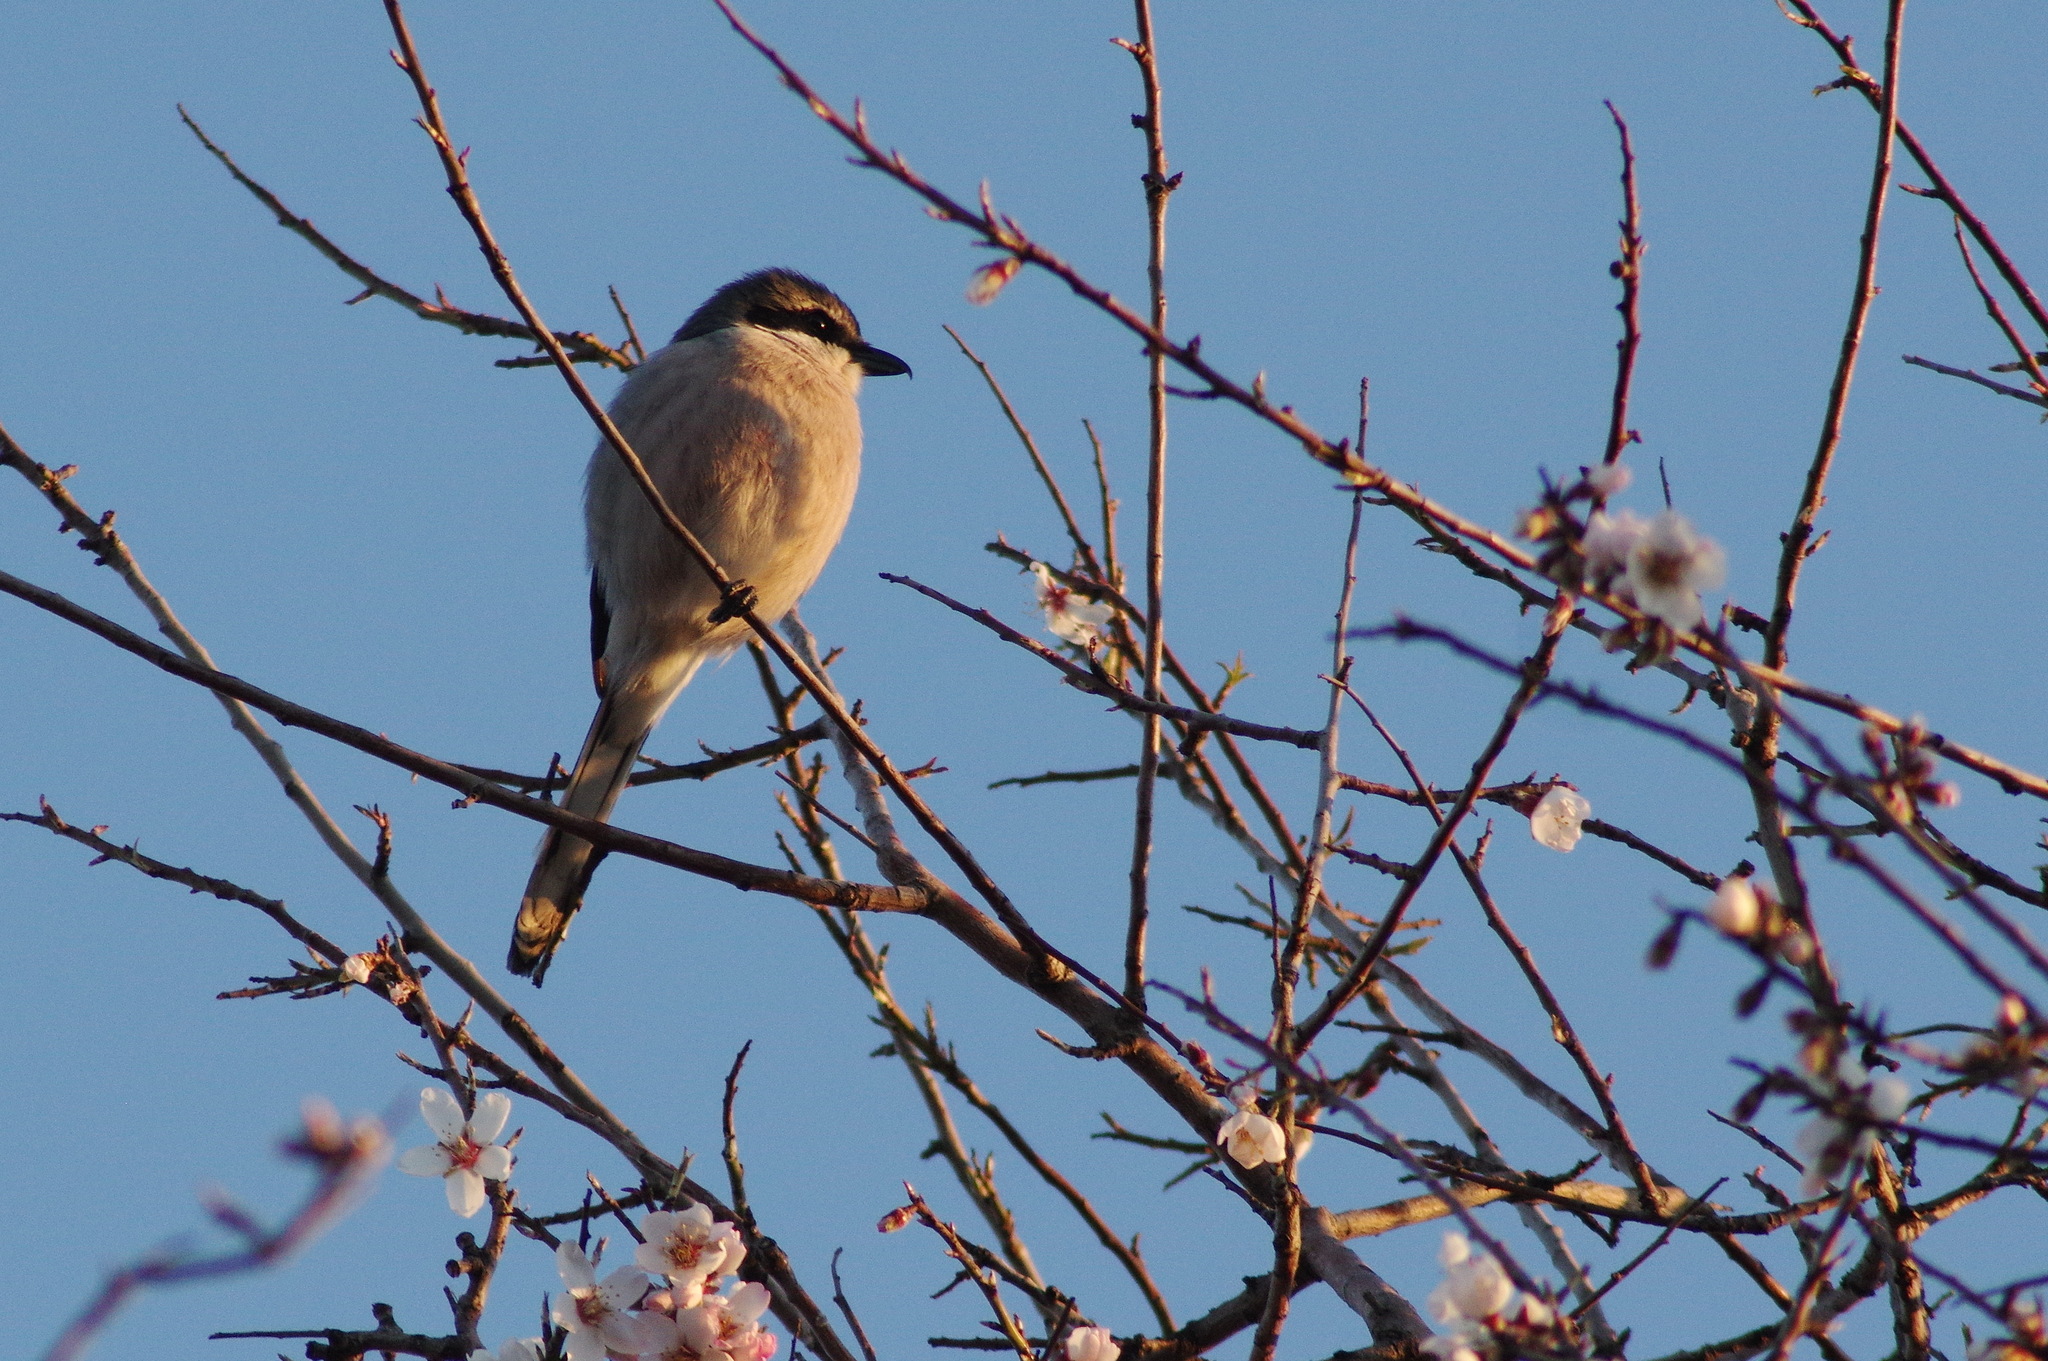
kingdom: Animalia
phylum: Chordata
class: Aves
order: Passeriformes
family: Laniidae
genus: Lanius
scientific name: Lanius meridionalis
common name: Iberian grey shrike
